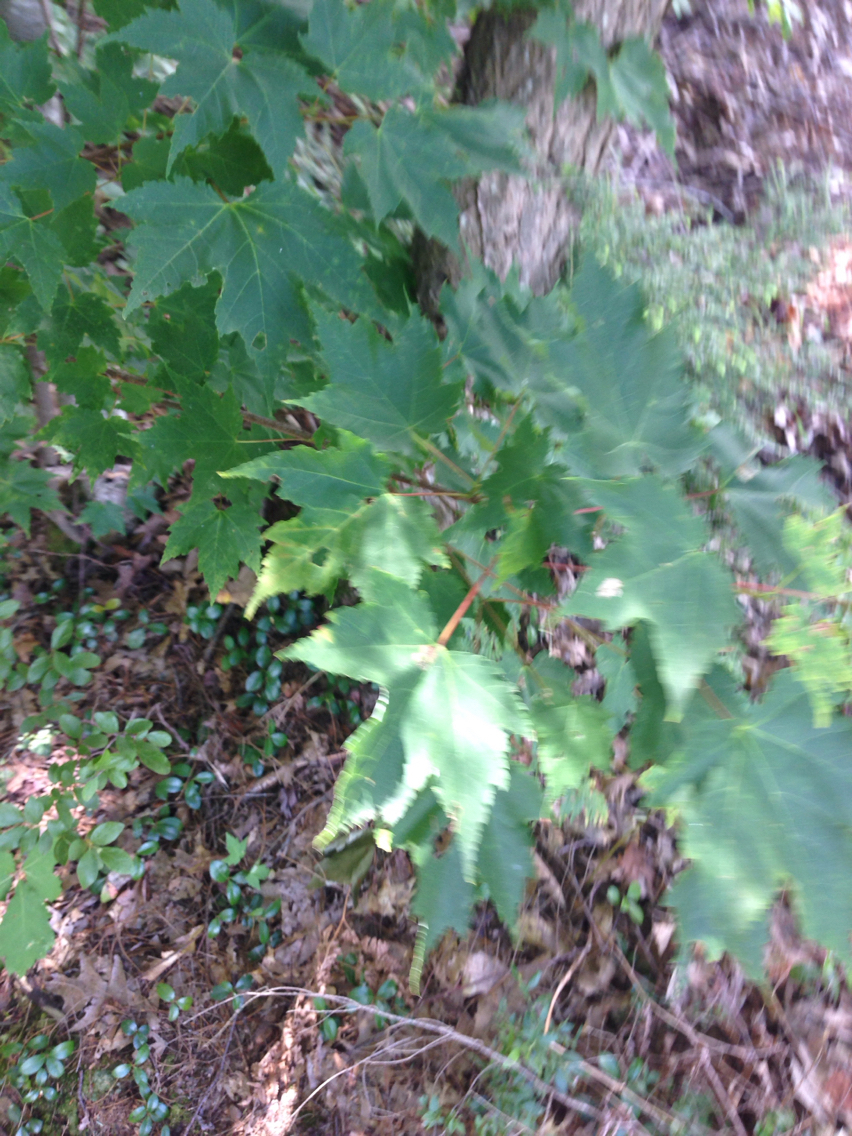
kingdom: Plantae
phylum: Tracheophyta
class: Magnoliopsida
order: Sapindales
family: Sapindaceae
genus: Acer
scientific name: Acer rubrum
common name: Red maple
